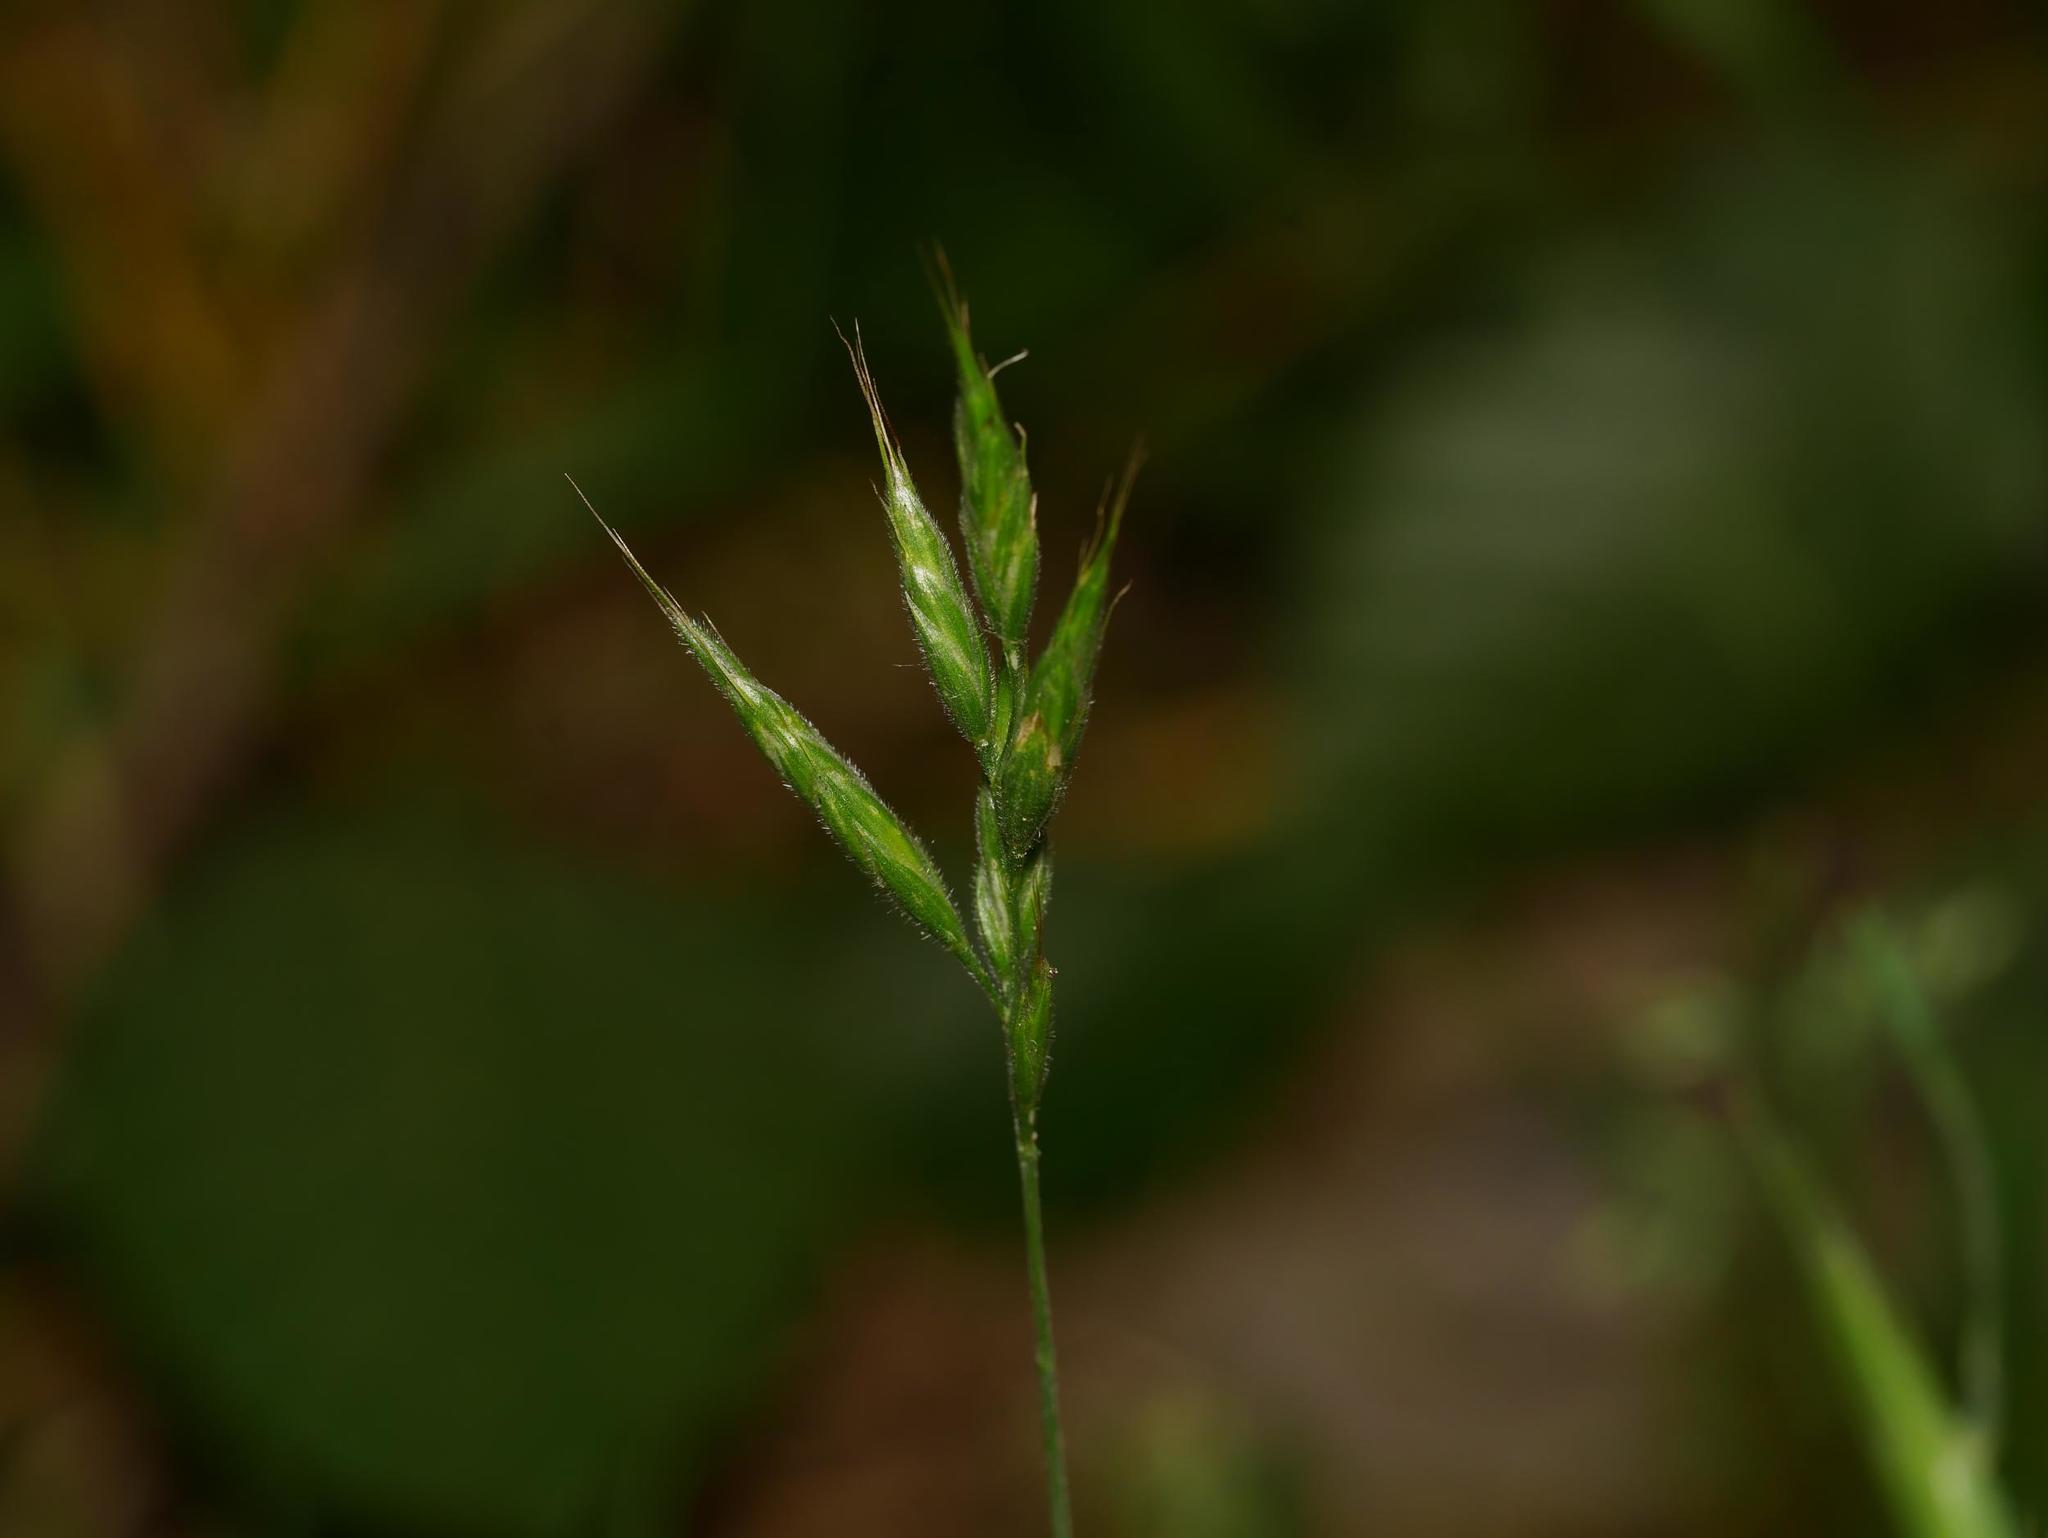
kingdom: Plantae
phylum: Tracheophyta
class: Liliopsida
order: Poales
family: Poaceae
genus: Bromus
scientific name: Bromus hordeaceus
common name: Soft brome
